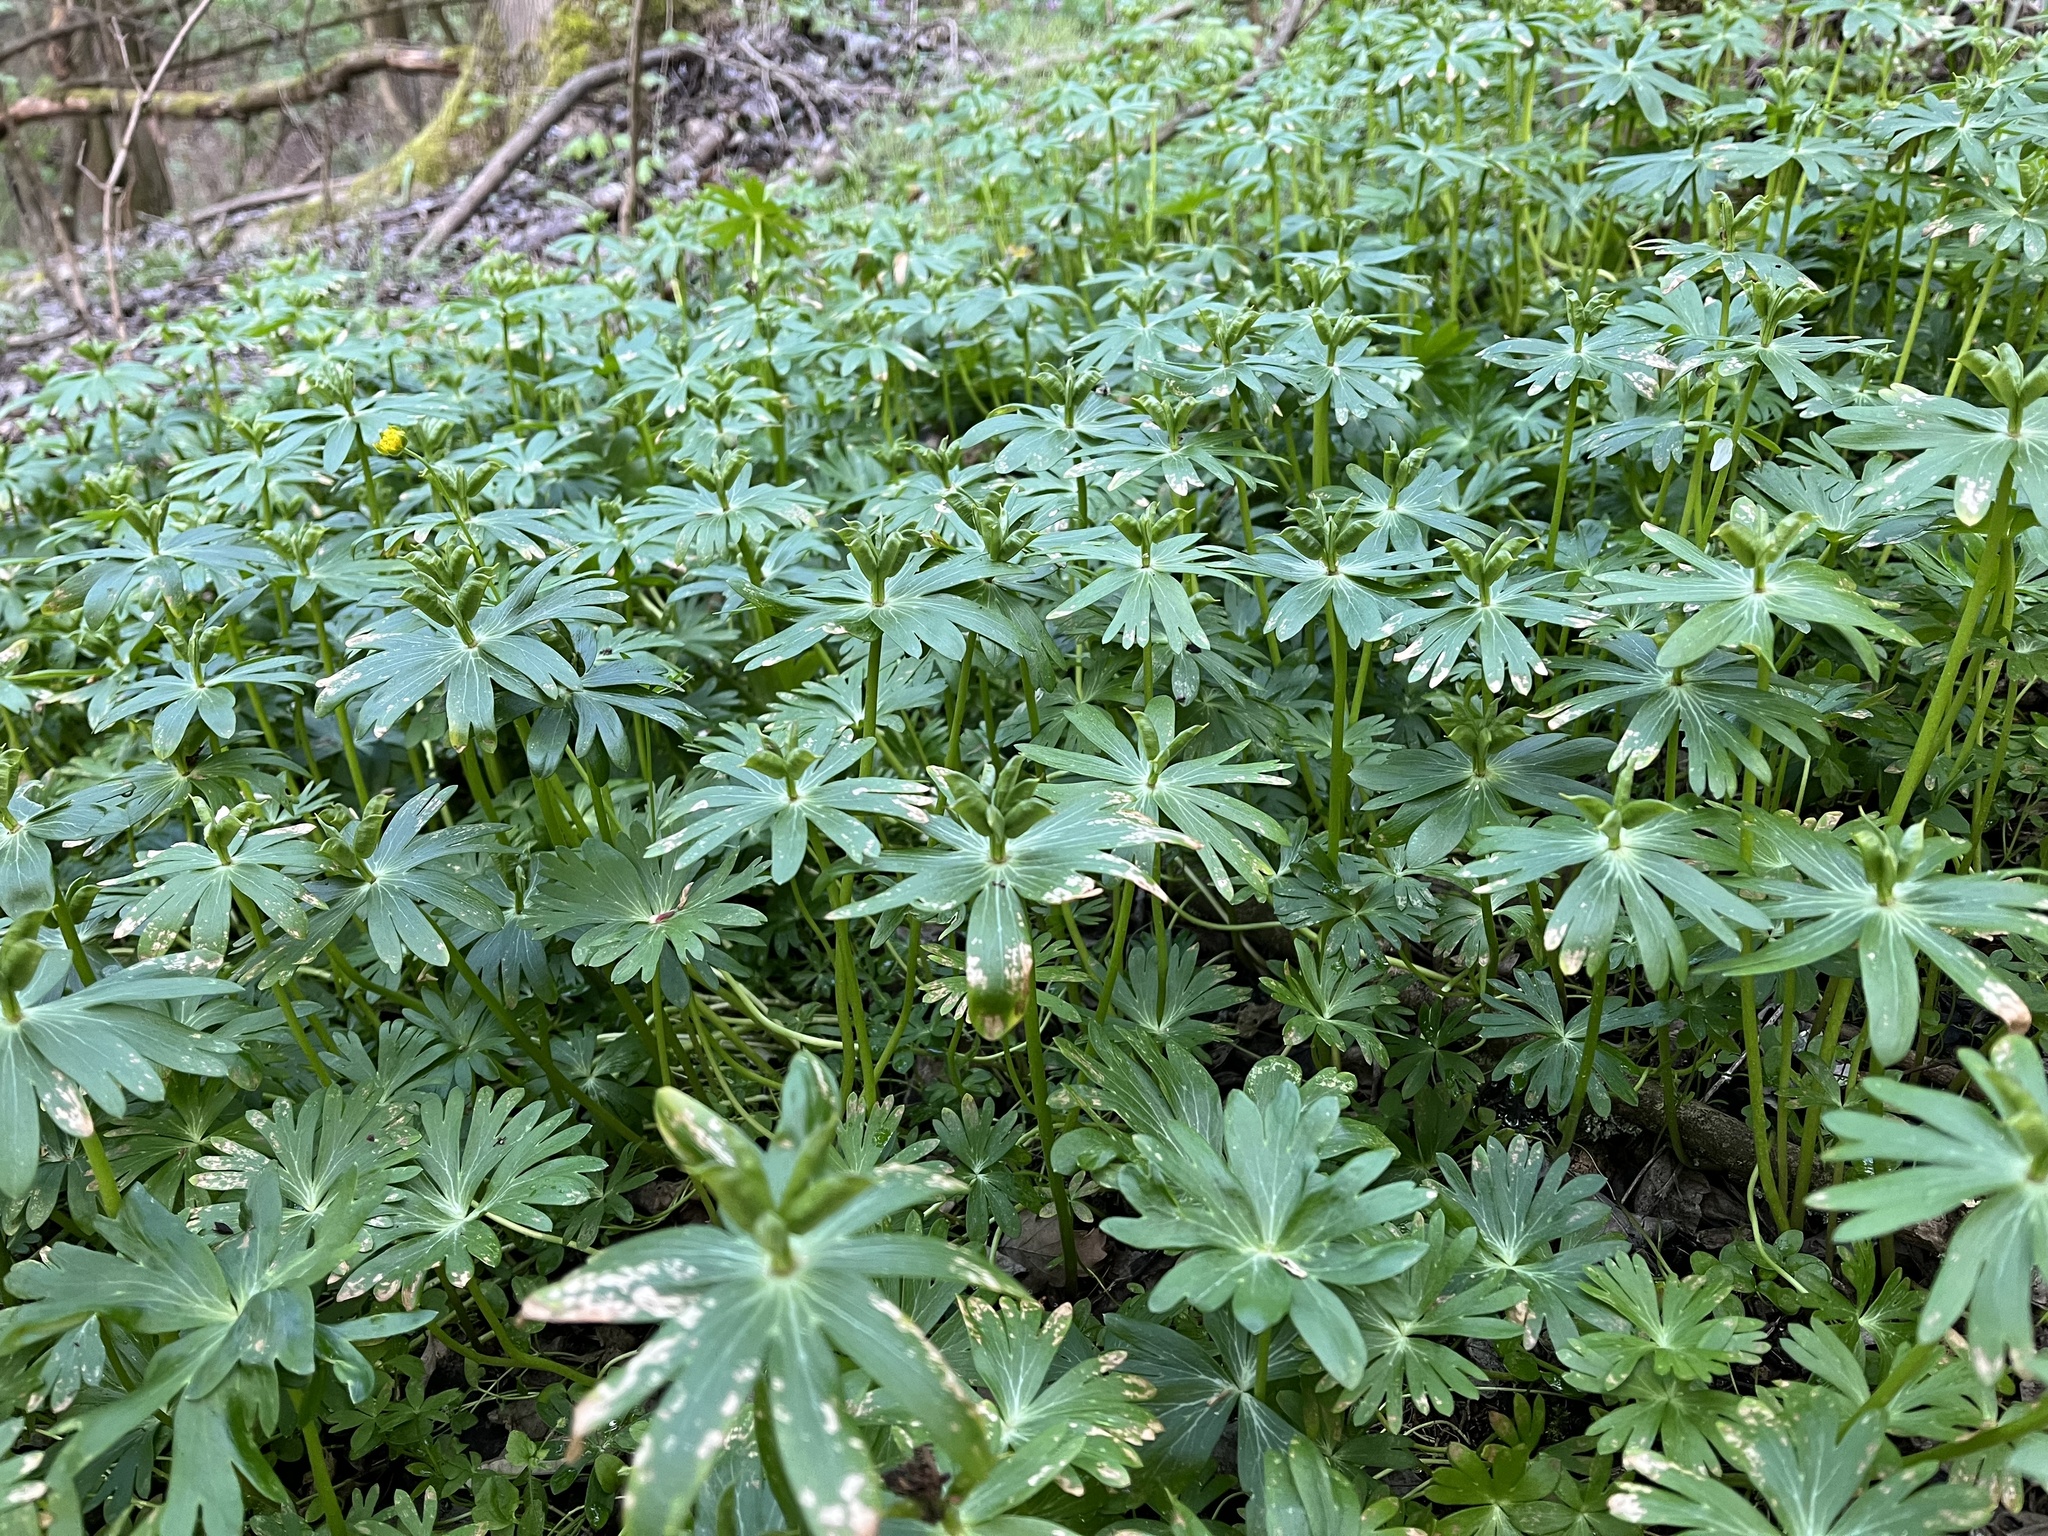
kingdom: Plantae
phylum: Tracheophyta
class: Magnoliopsida
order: Ranunculales
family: Ranunculaceae
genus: Eranthis
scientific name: Eranthis hyemalis
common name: Winter aconite
